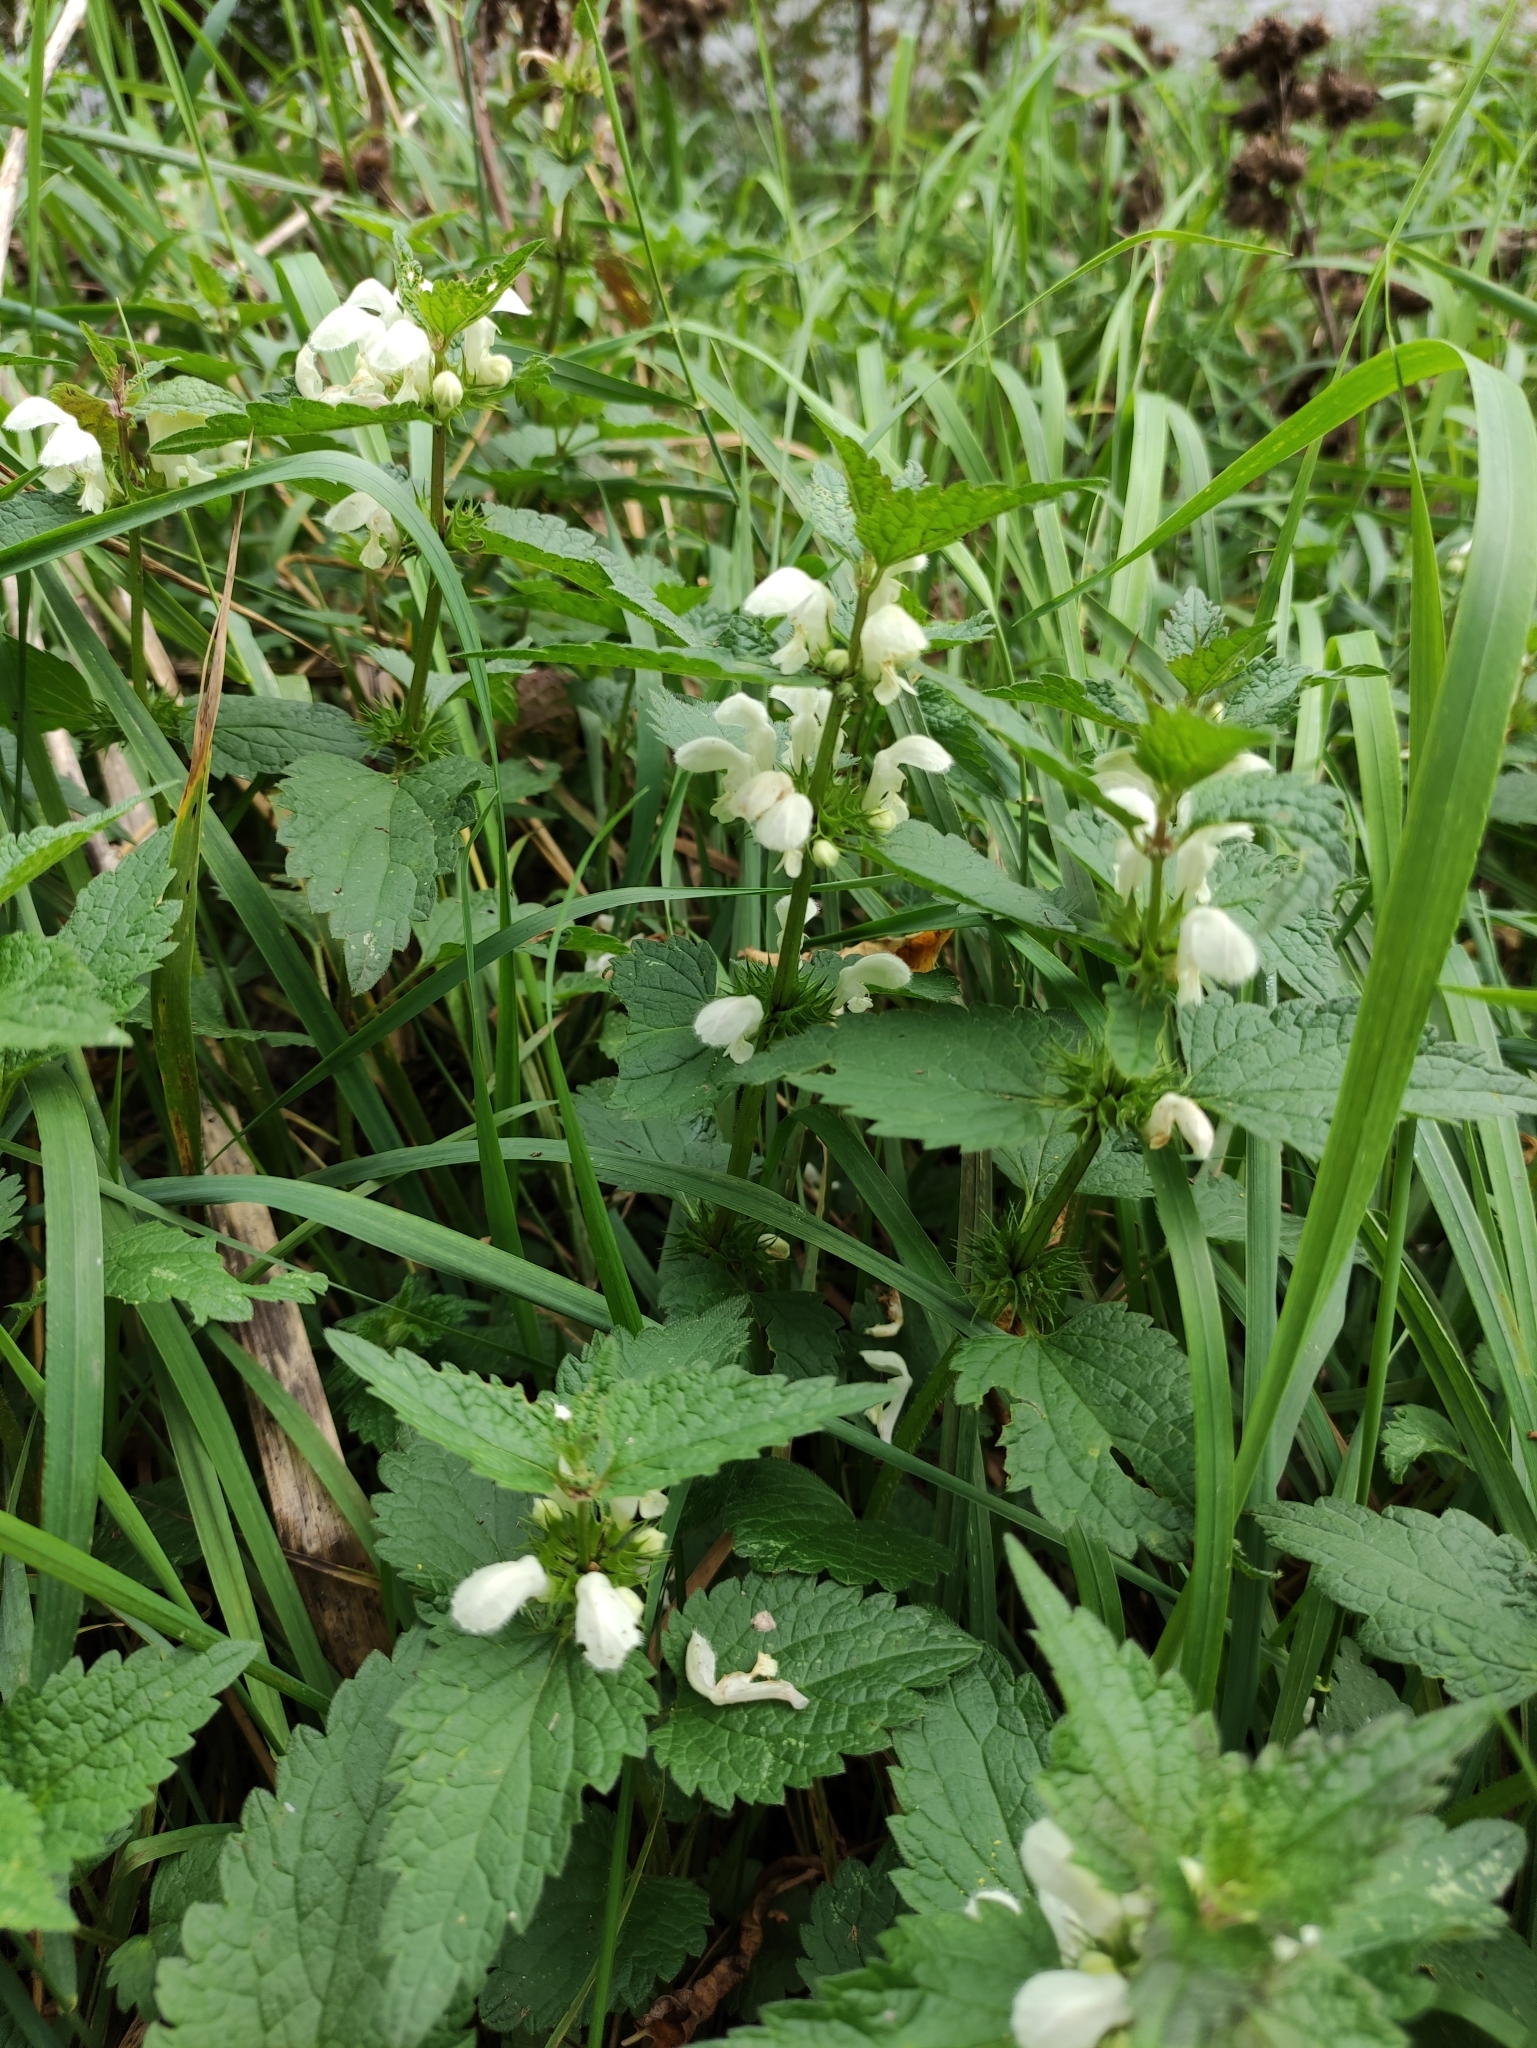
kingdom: Plantae
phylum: Tracheophyta
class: Magnoliopsida
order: Lamiales
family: Lamiaceae
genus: Lamium
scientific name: Lamium album
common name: White dead-nettle
